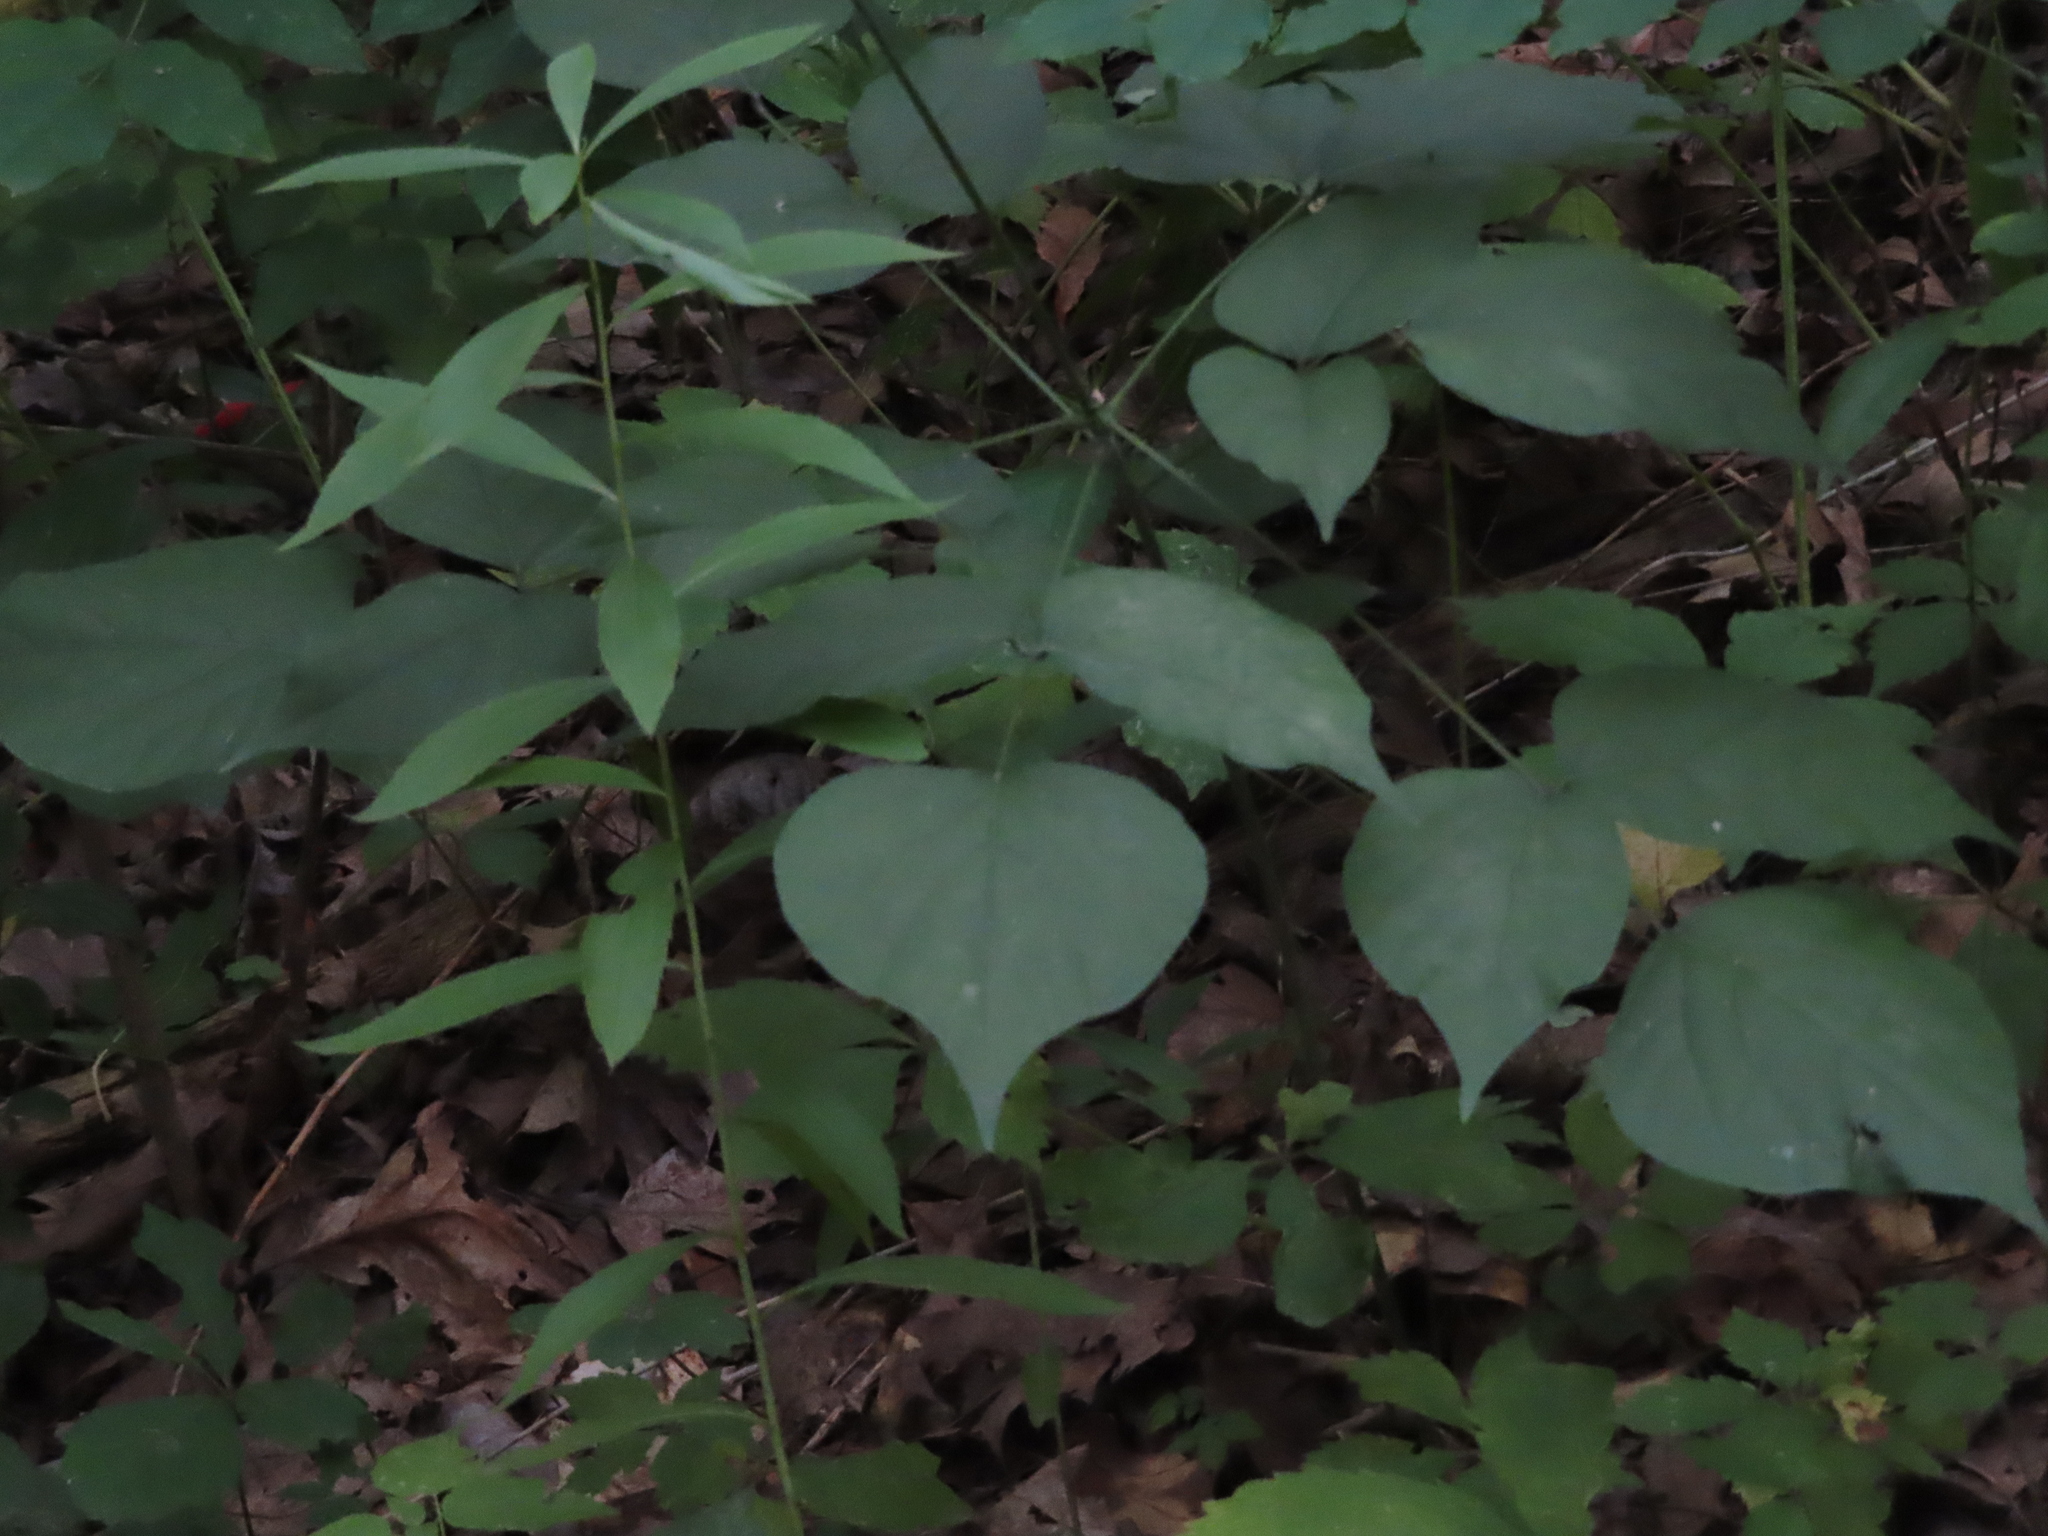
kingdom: Plantae
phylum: Tracheophyta
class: Magnoliopsida
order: Fabales
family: Fabaceae
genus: Hylodesmum
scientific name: Hylodesmum glutinosum
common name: Clustered-leaved tick-trefoil
